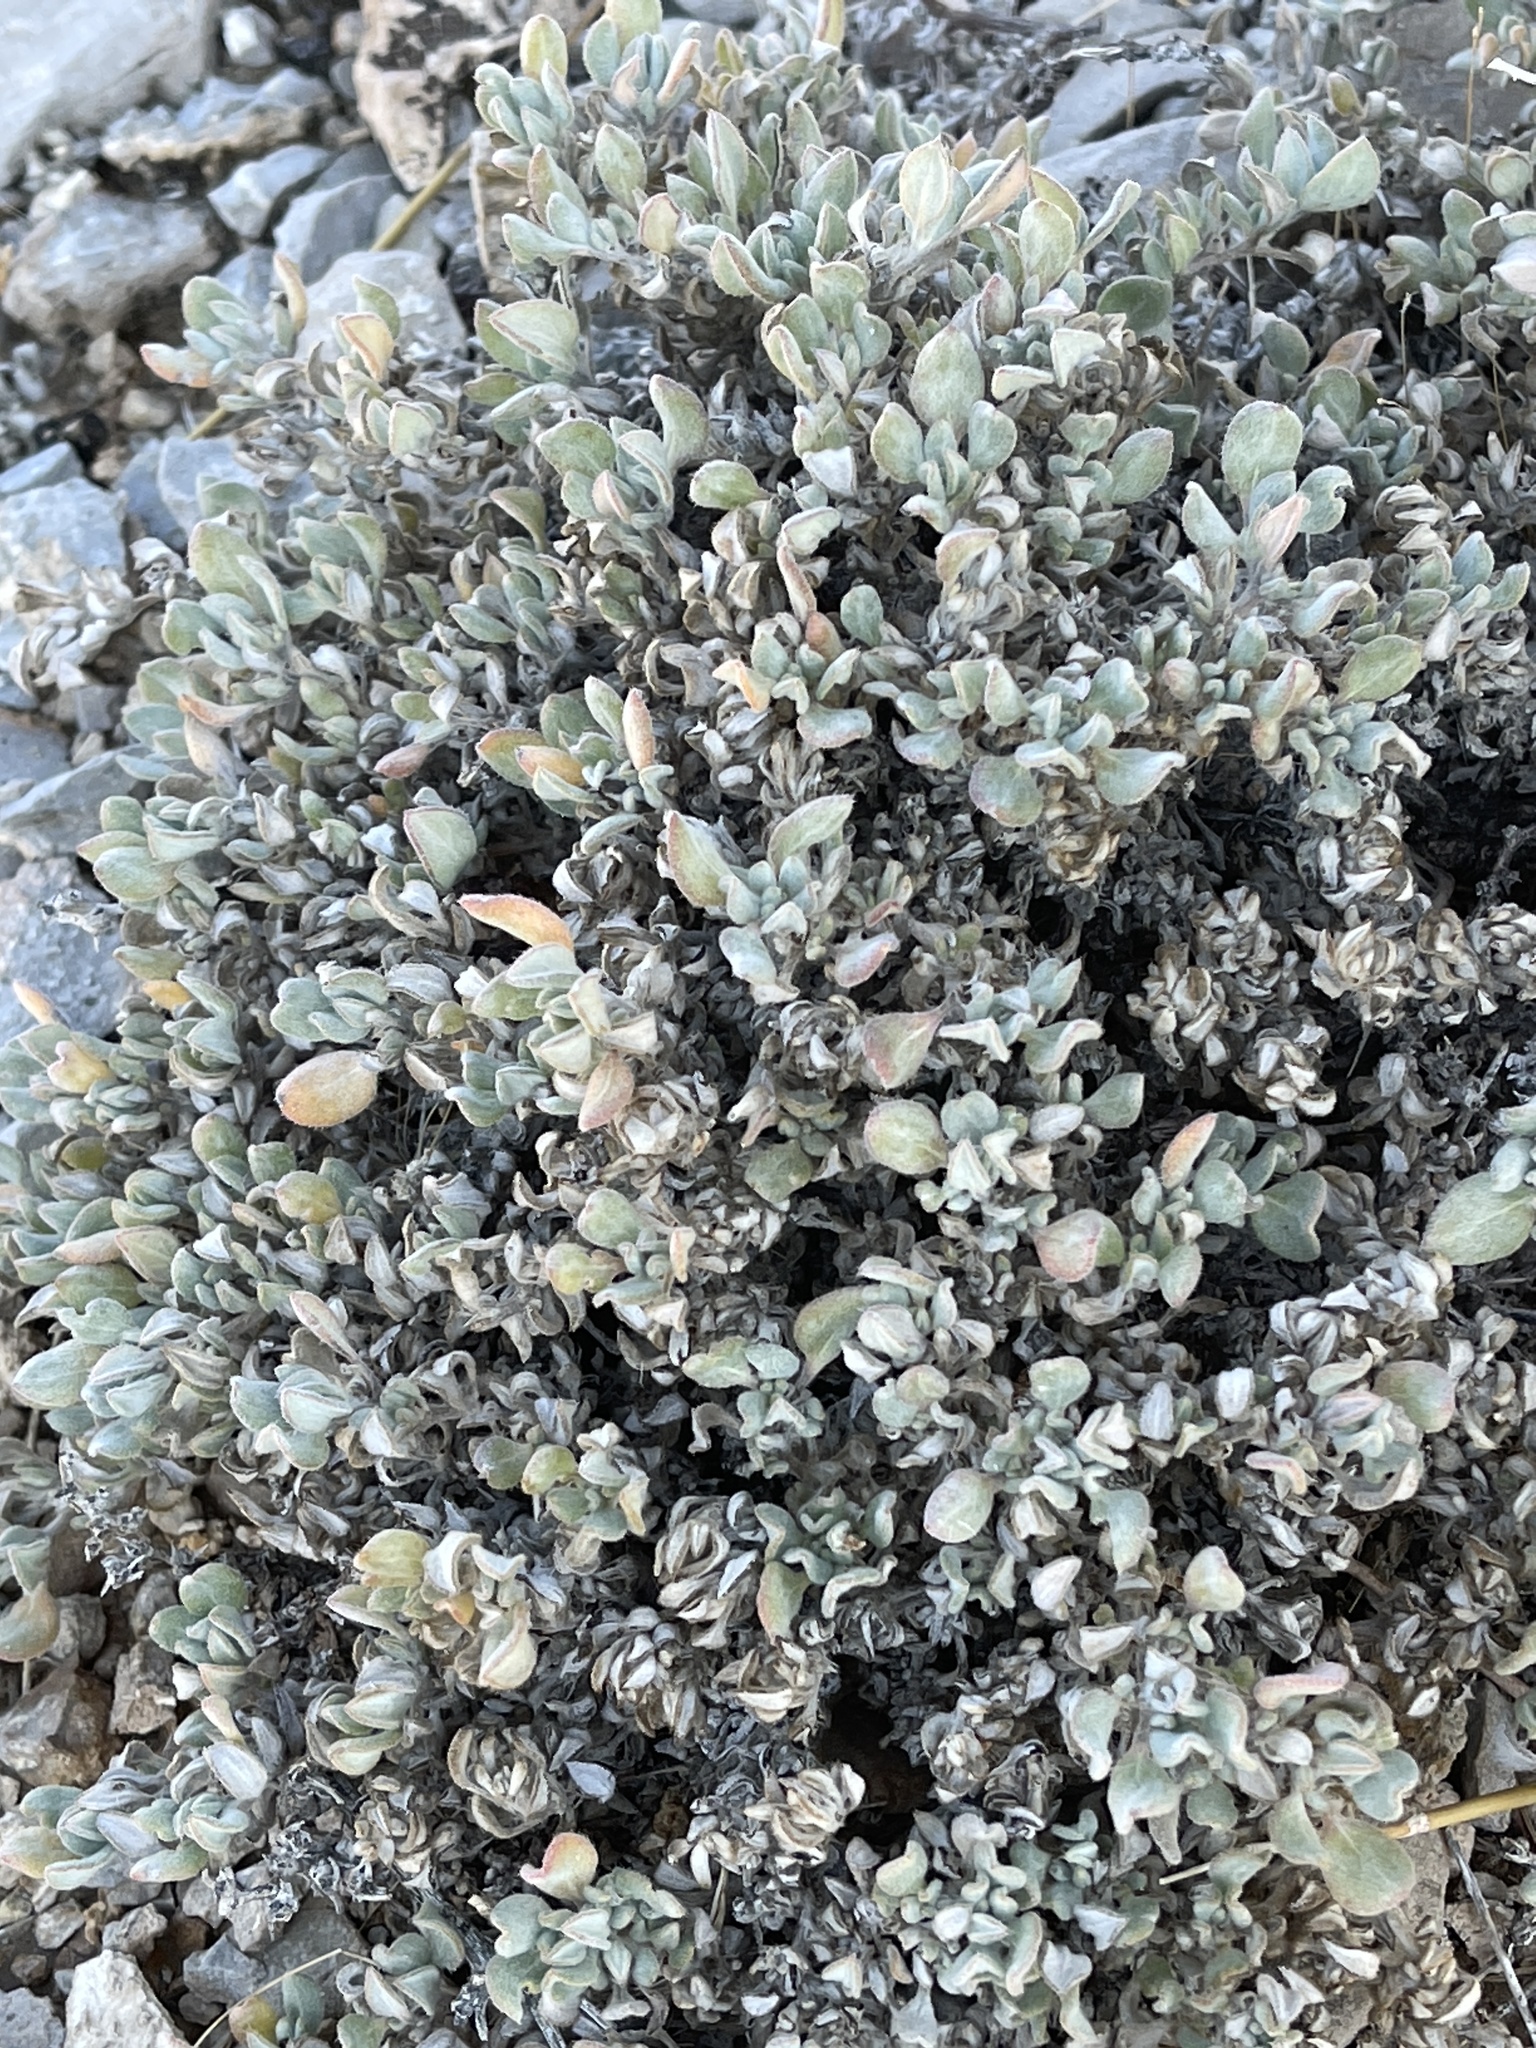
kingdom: Plantae
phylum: Tracheophyta
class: Magnoliopsida
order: Boraginales
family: Ehretiaceae
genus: Tiquilia
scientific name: Tiquilia canescens
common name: Hairy tiquilia
